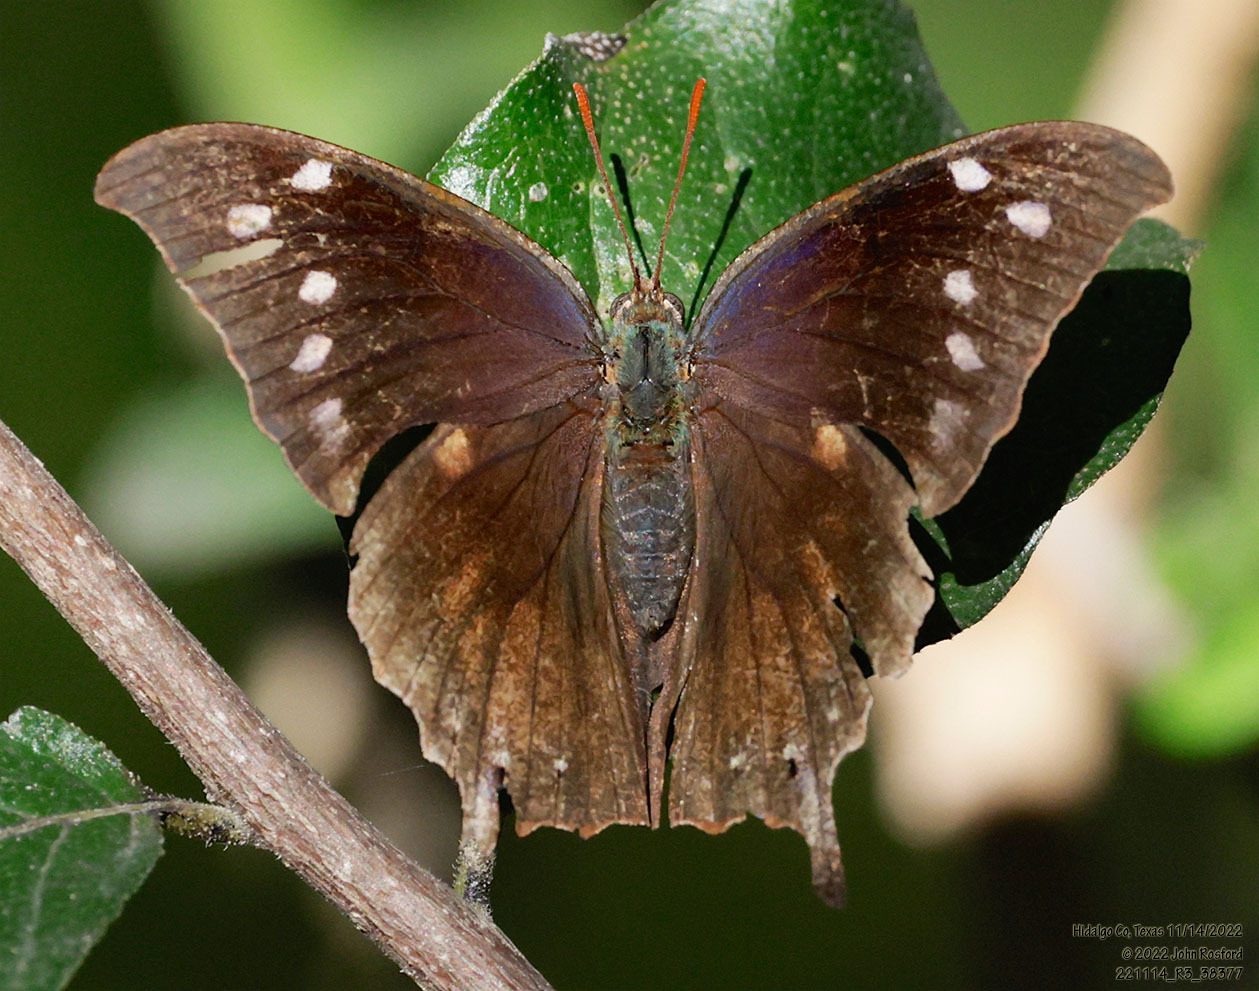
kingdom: Animalia
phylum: Arthropoda
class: Insecta
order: Lepidoptera
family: Nymphalidae
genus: Anaea
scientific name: Anaea pithyusa
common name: Pale-spotted leafwing
